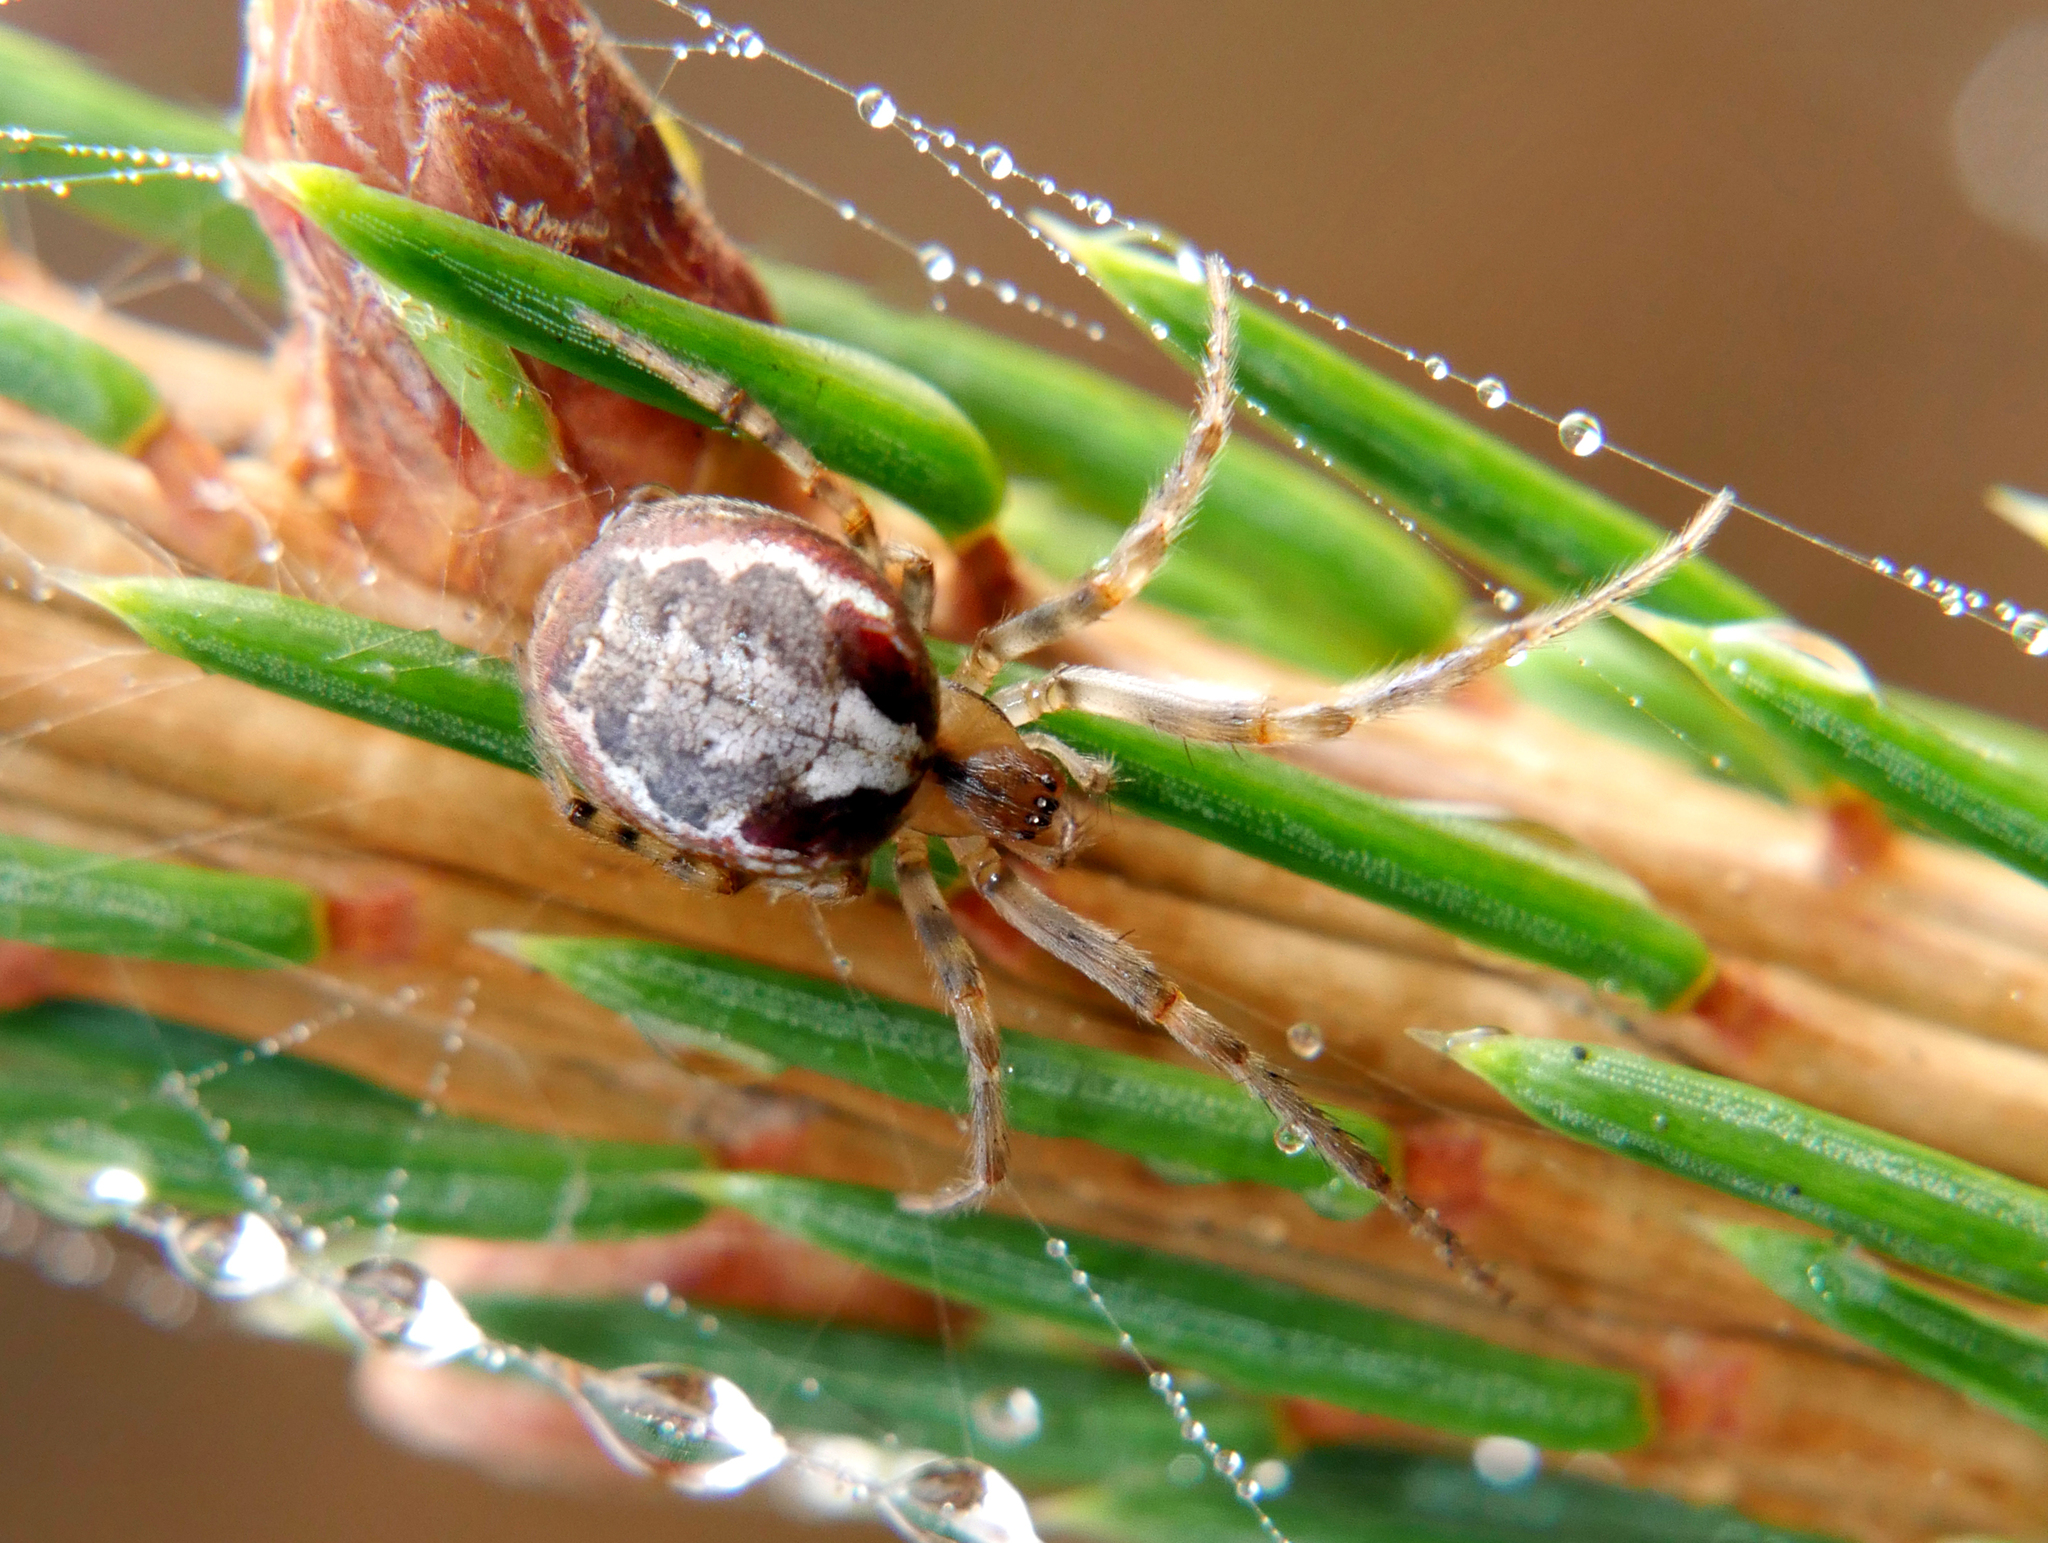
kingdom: Animalia
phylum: Arthropoda
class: Arachnida
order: Araneae
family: Araneidae
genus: Zygiella
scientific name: Zygiella atrica
